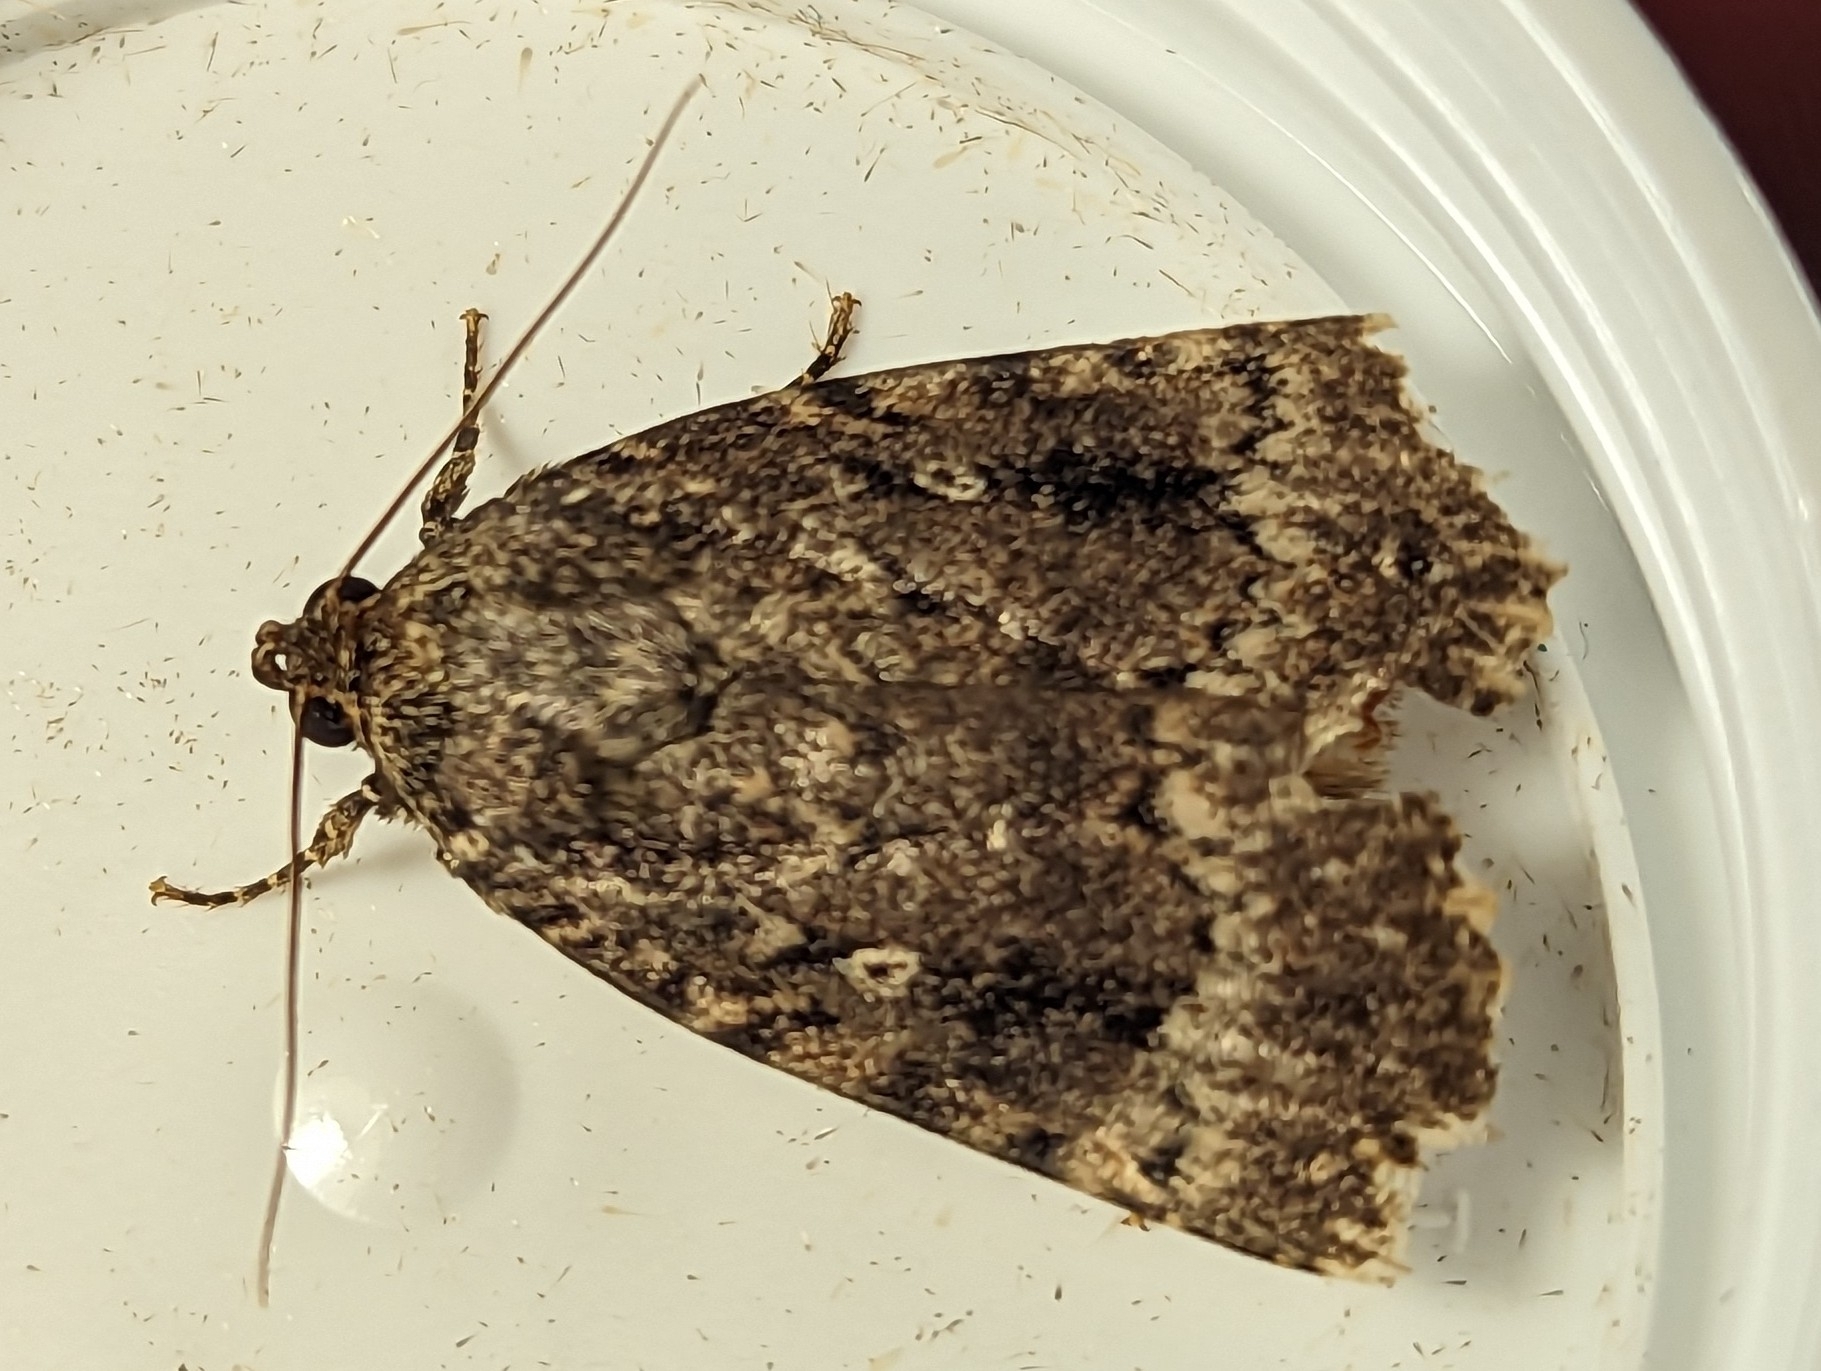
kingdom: Animalia
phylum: Arthropoda
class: Insecta
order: Lepidoptera
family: Noctuidae
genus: Amphipyra
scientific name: Amphipyra pyramidea
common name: Copper underwing
